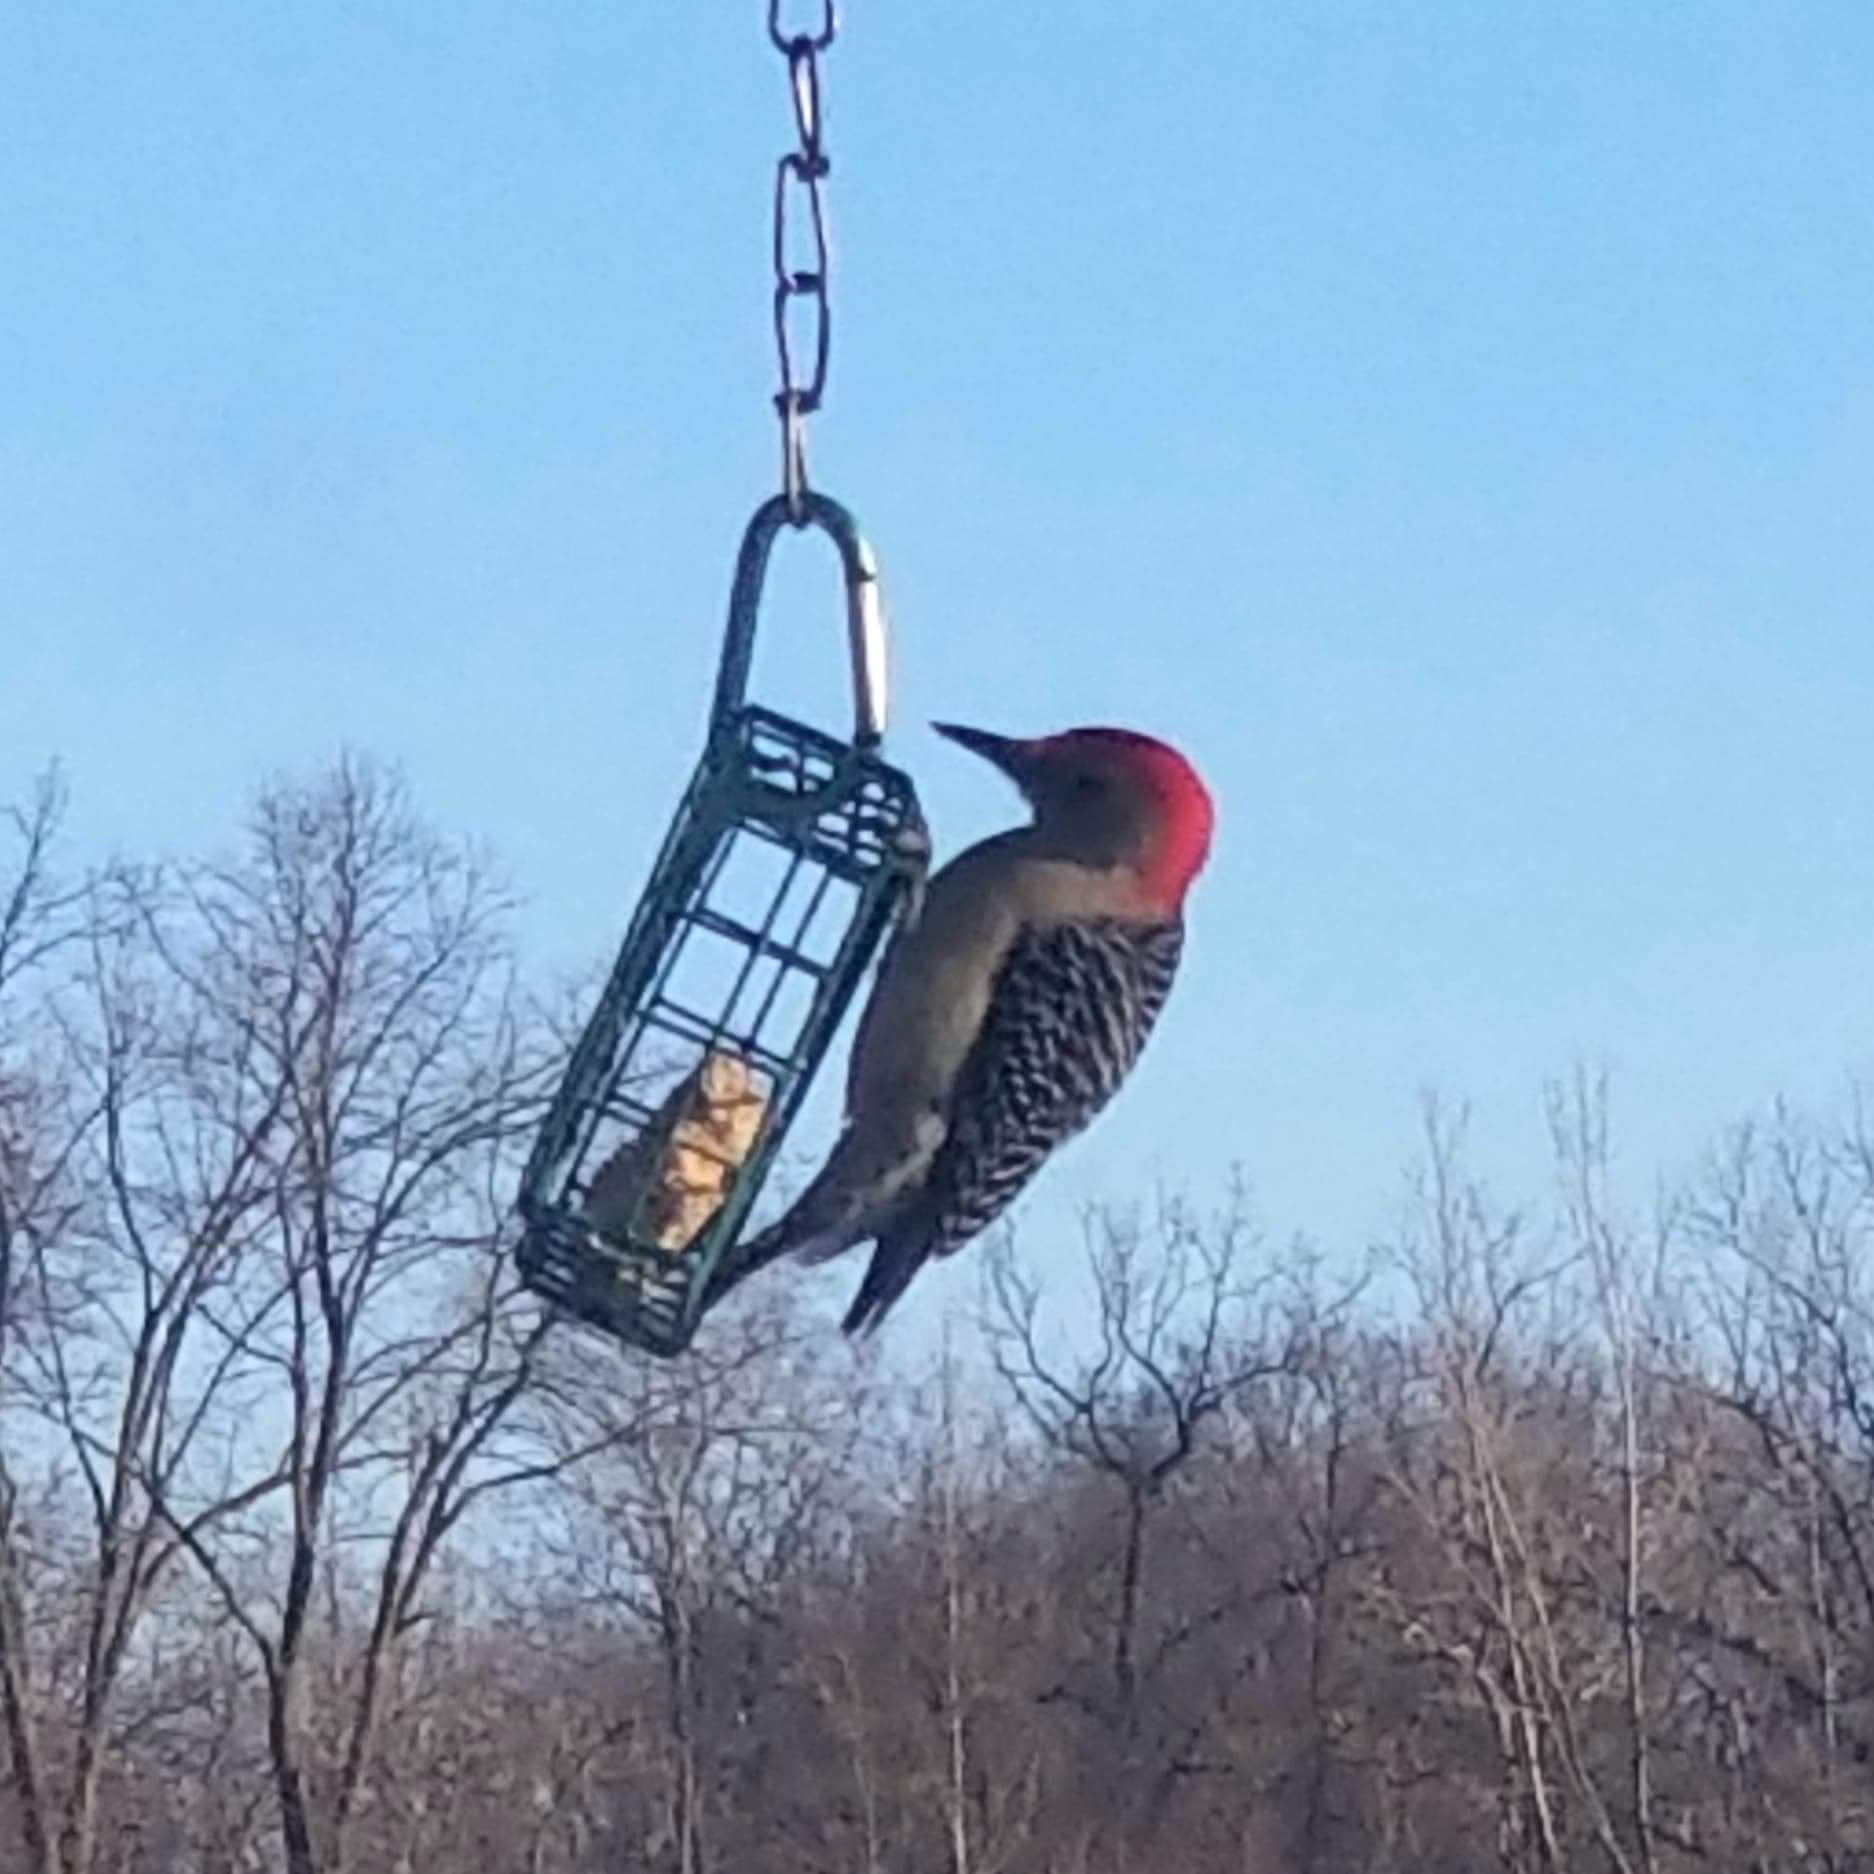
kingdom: Animalia
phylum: Chordata
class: Aves
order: Piciformes
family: Picidae
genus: Melanerpes
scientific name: Melanerpes carolinus
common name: Red-bellied woodpecker
